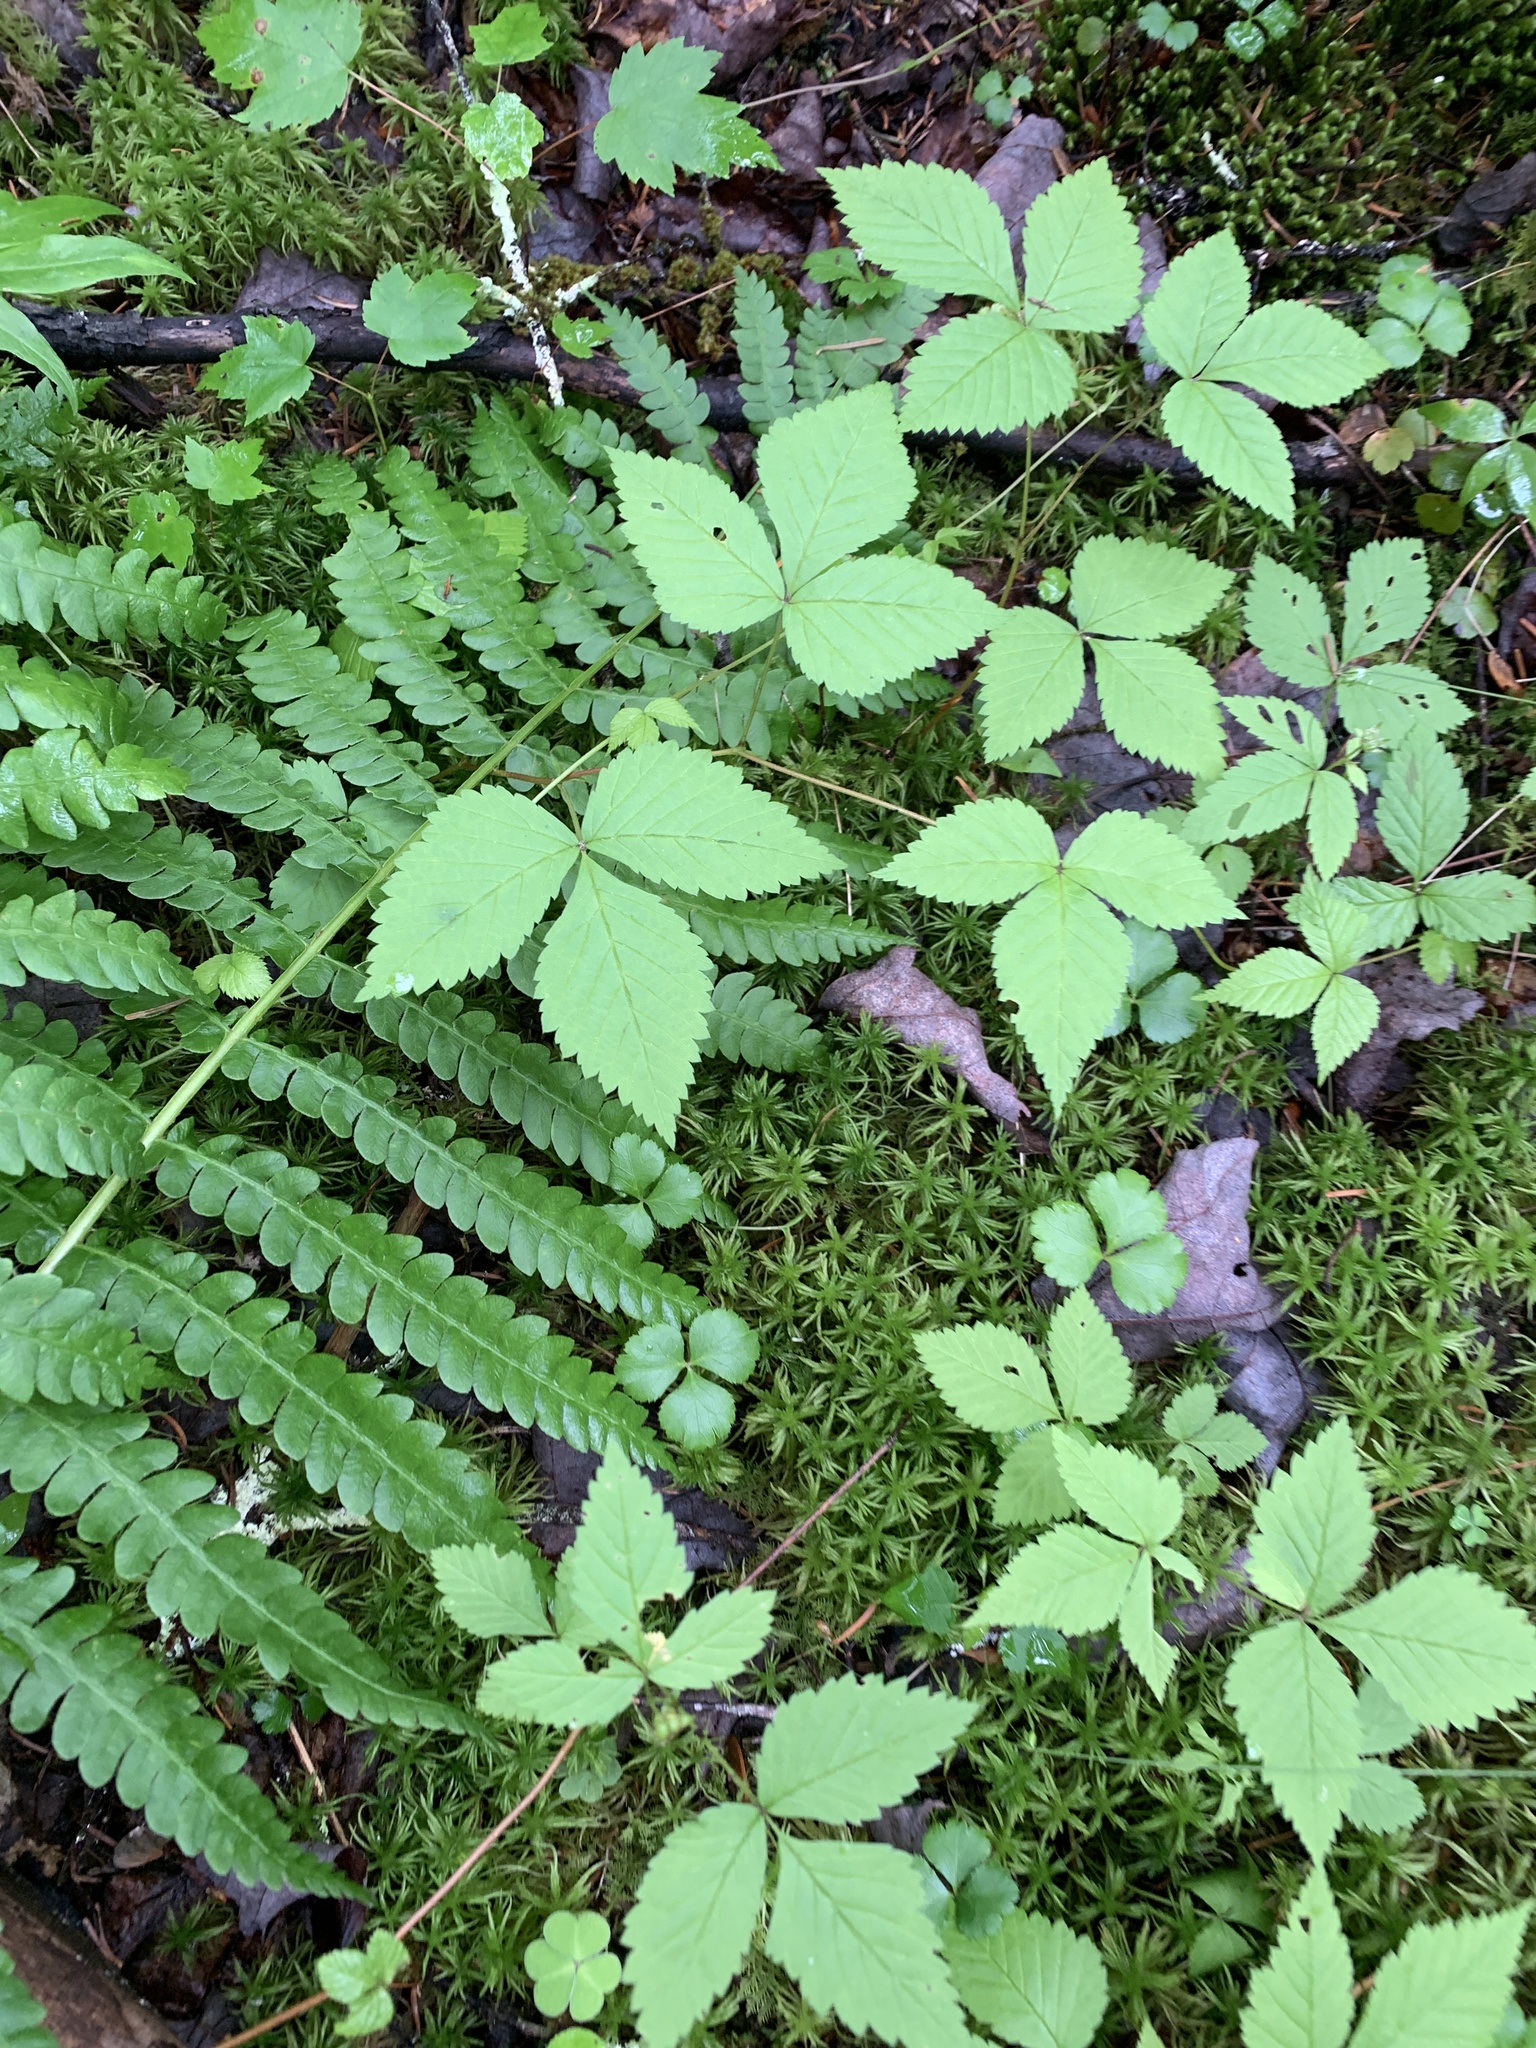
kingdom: Plantae
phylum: Tracheophyta
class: Magnoliopsida
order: Rosales
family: Rosaceae
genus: Rubus
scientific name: Rubus pubescens
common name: Dwarf raspberry
